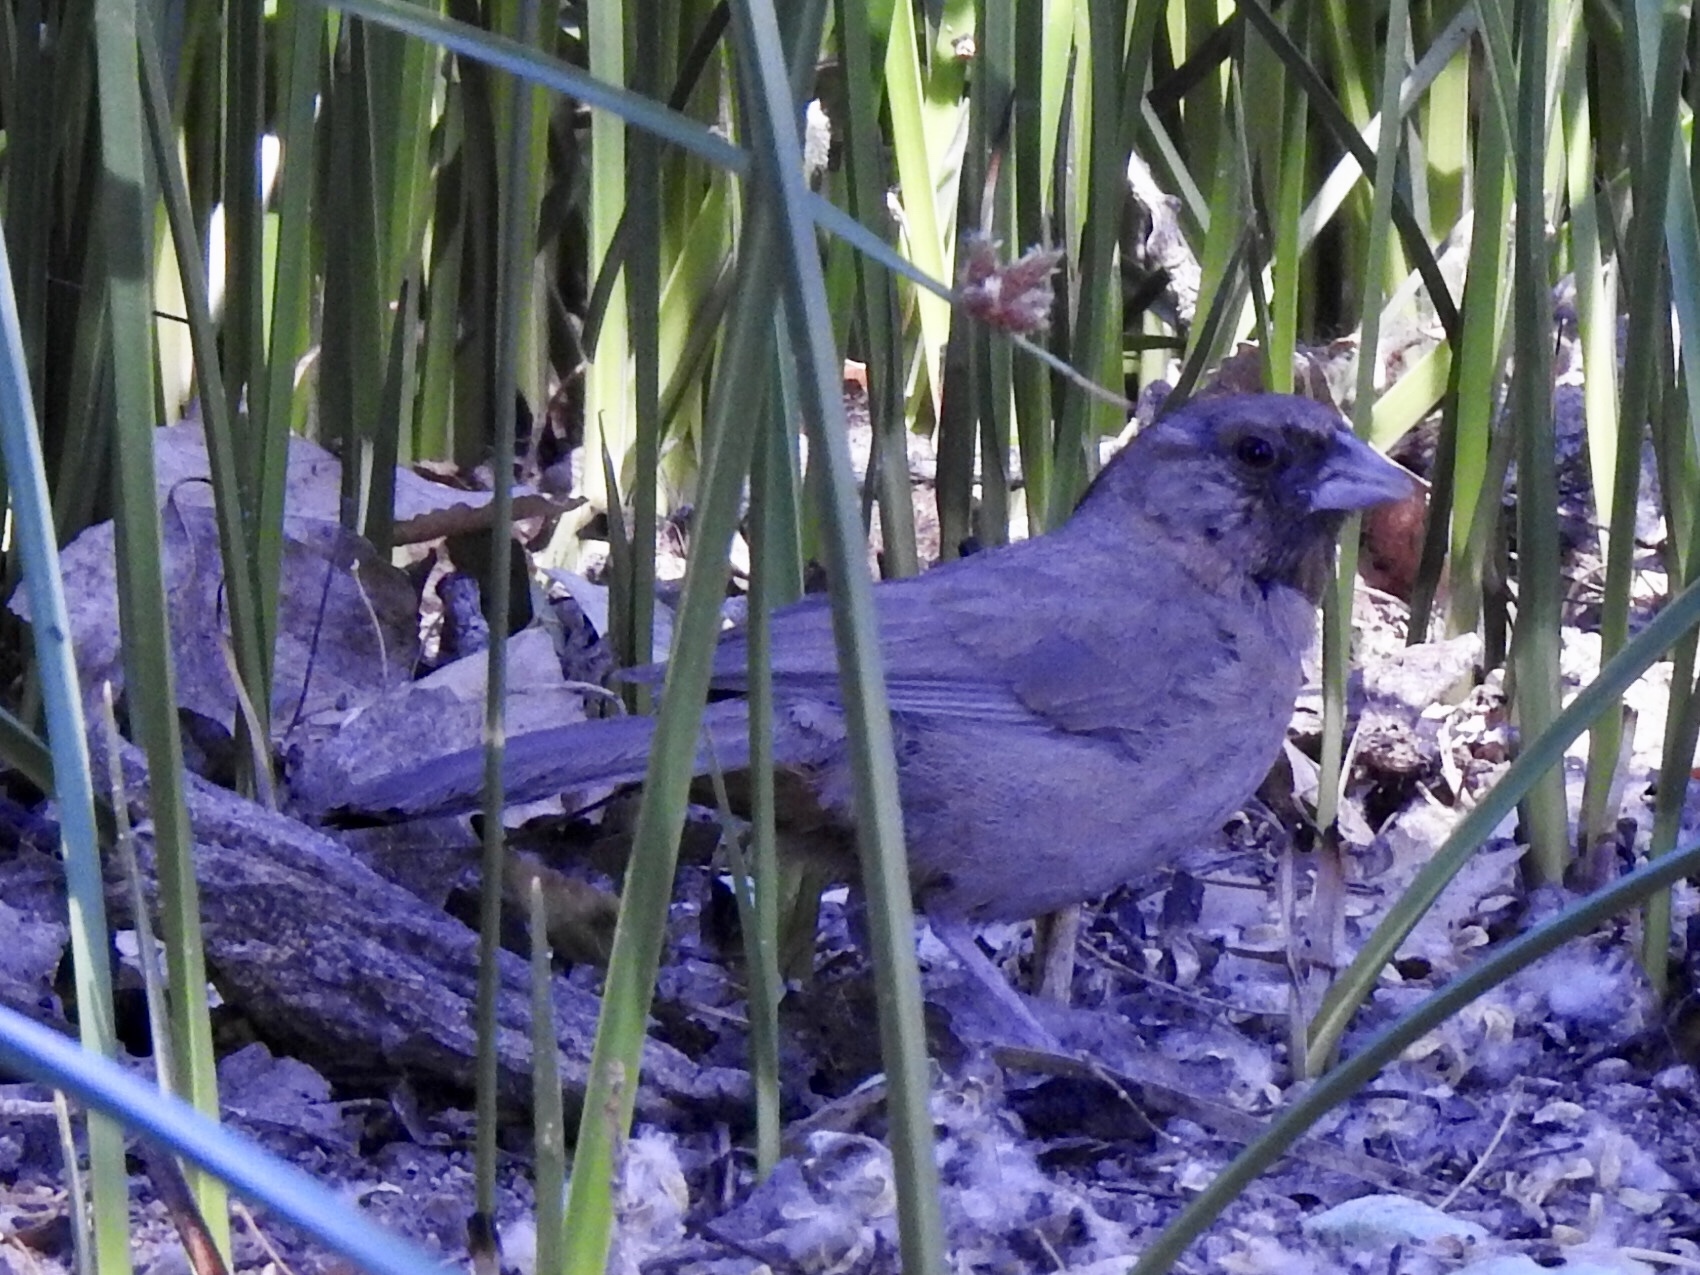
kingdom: Animalia
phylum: Chordata
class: Aves
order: Passeriformes
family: Passerellidae
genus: Melozone
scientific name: Melozone aberti
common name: Abert's towhee
